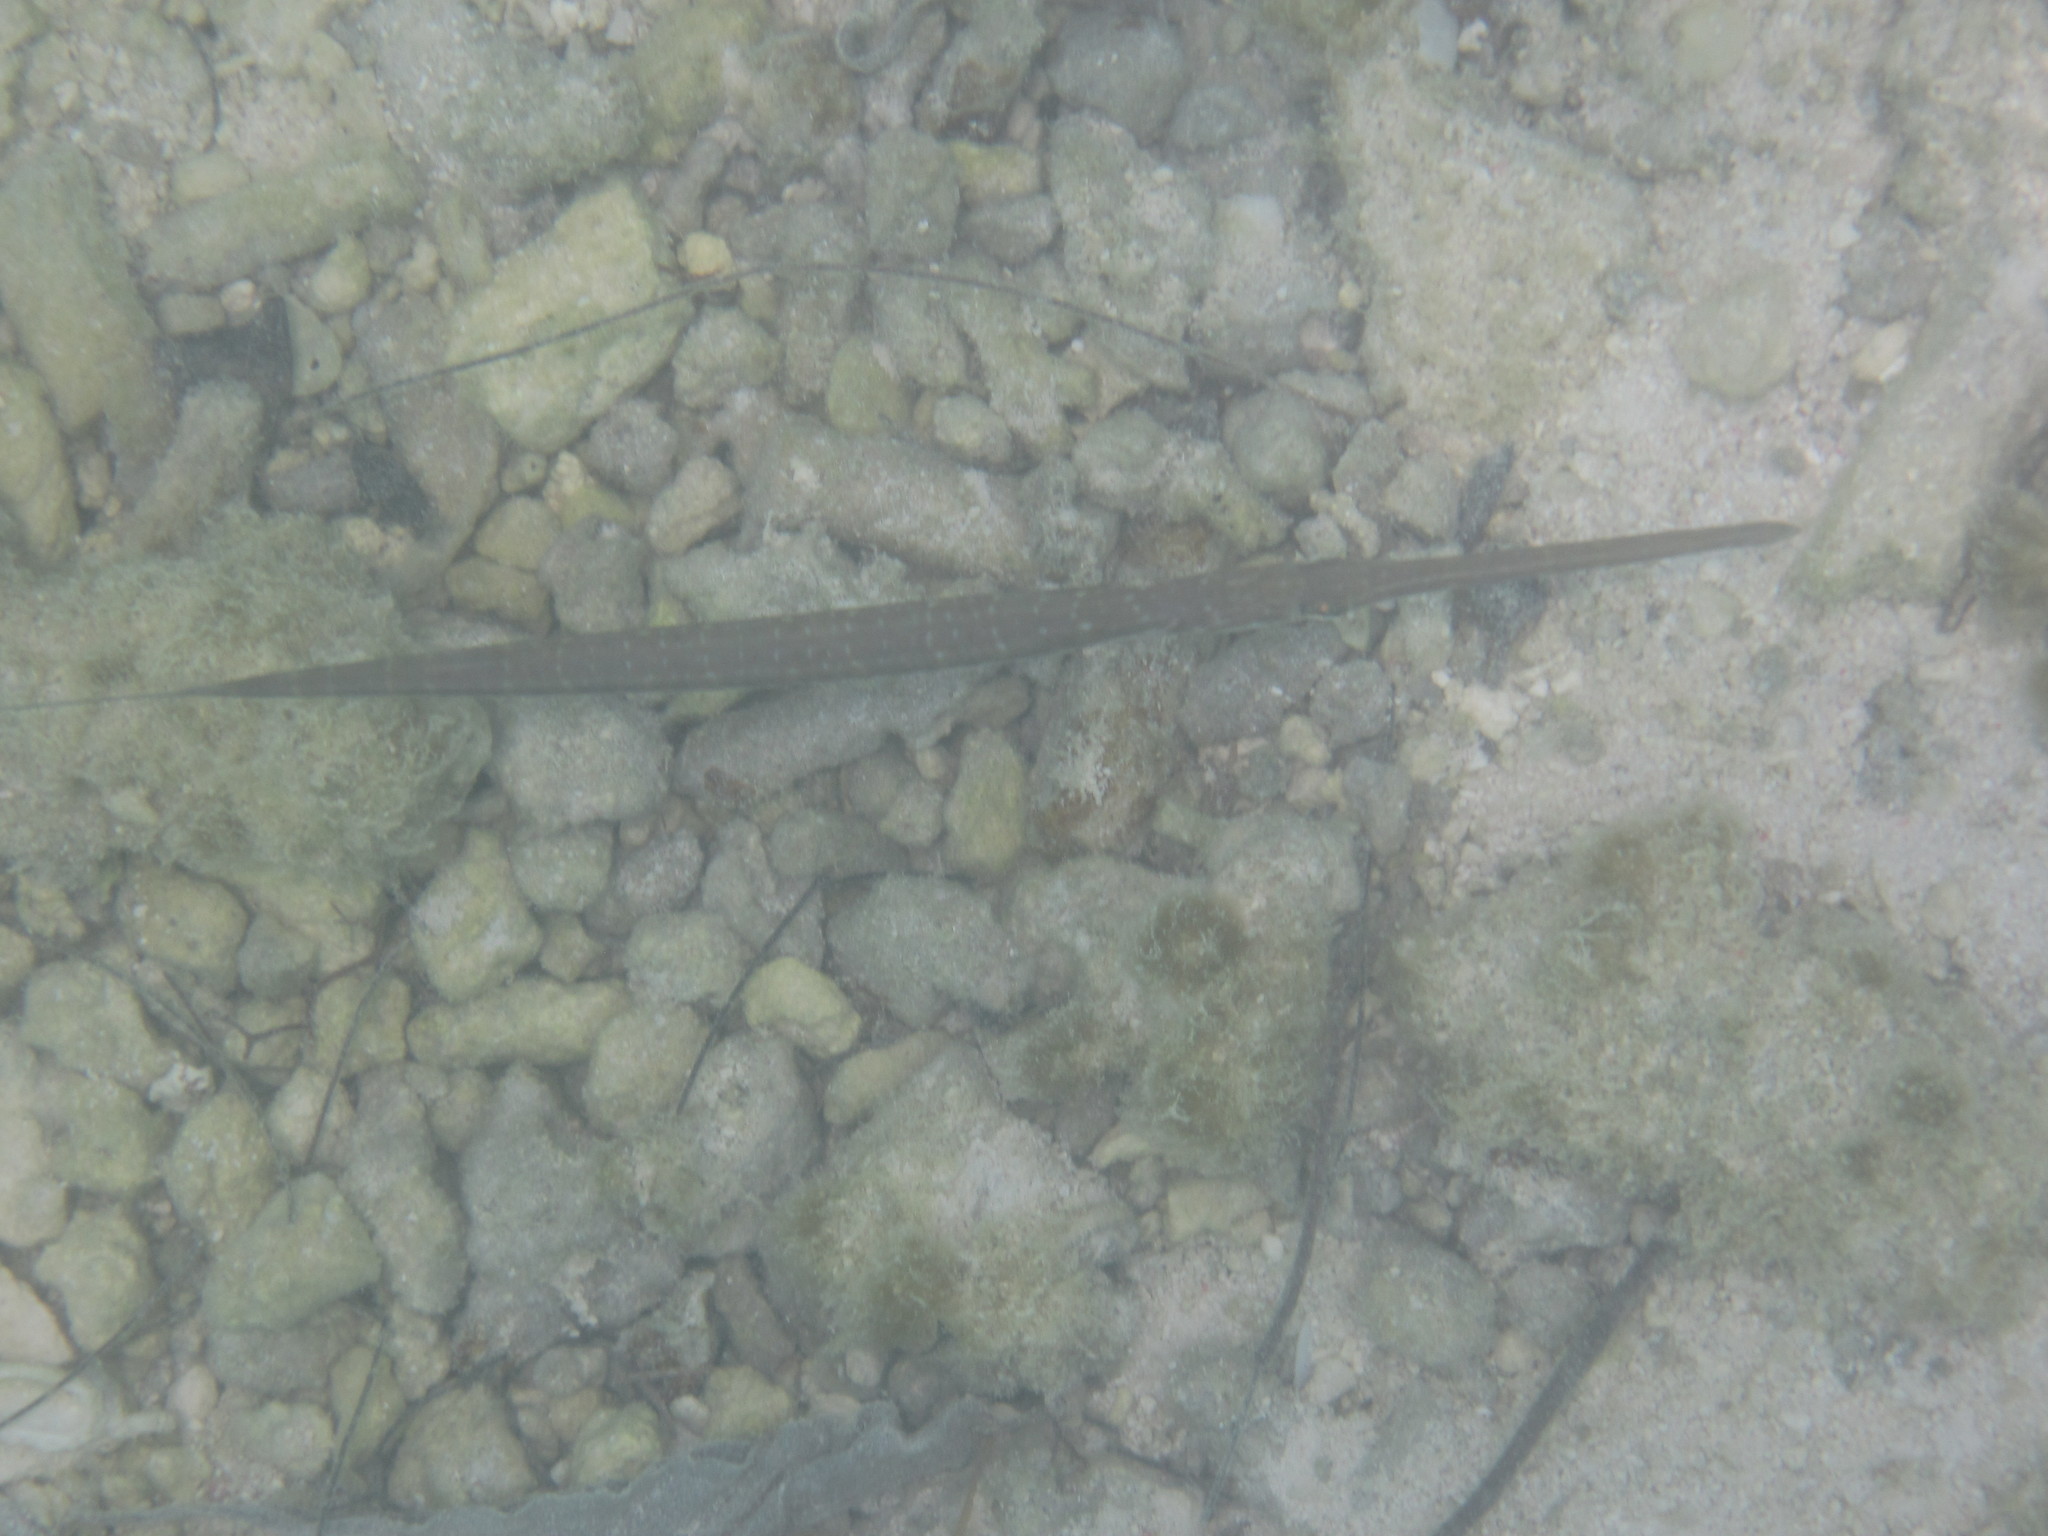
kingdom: Animalia
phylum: Chordata
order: Syngnathiformes
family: Fistulariidae
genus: Fistularia
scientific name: Fistularia commersonii
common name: Bluespotted cornetfish
